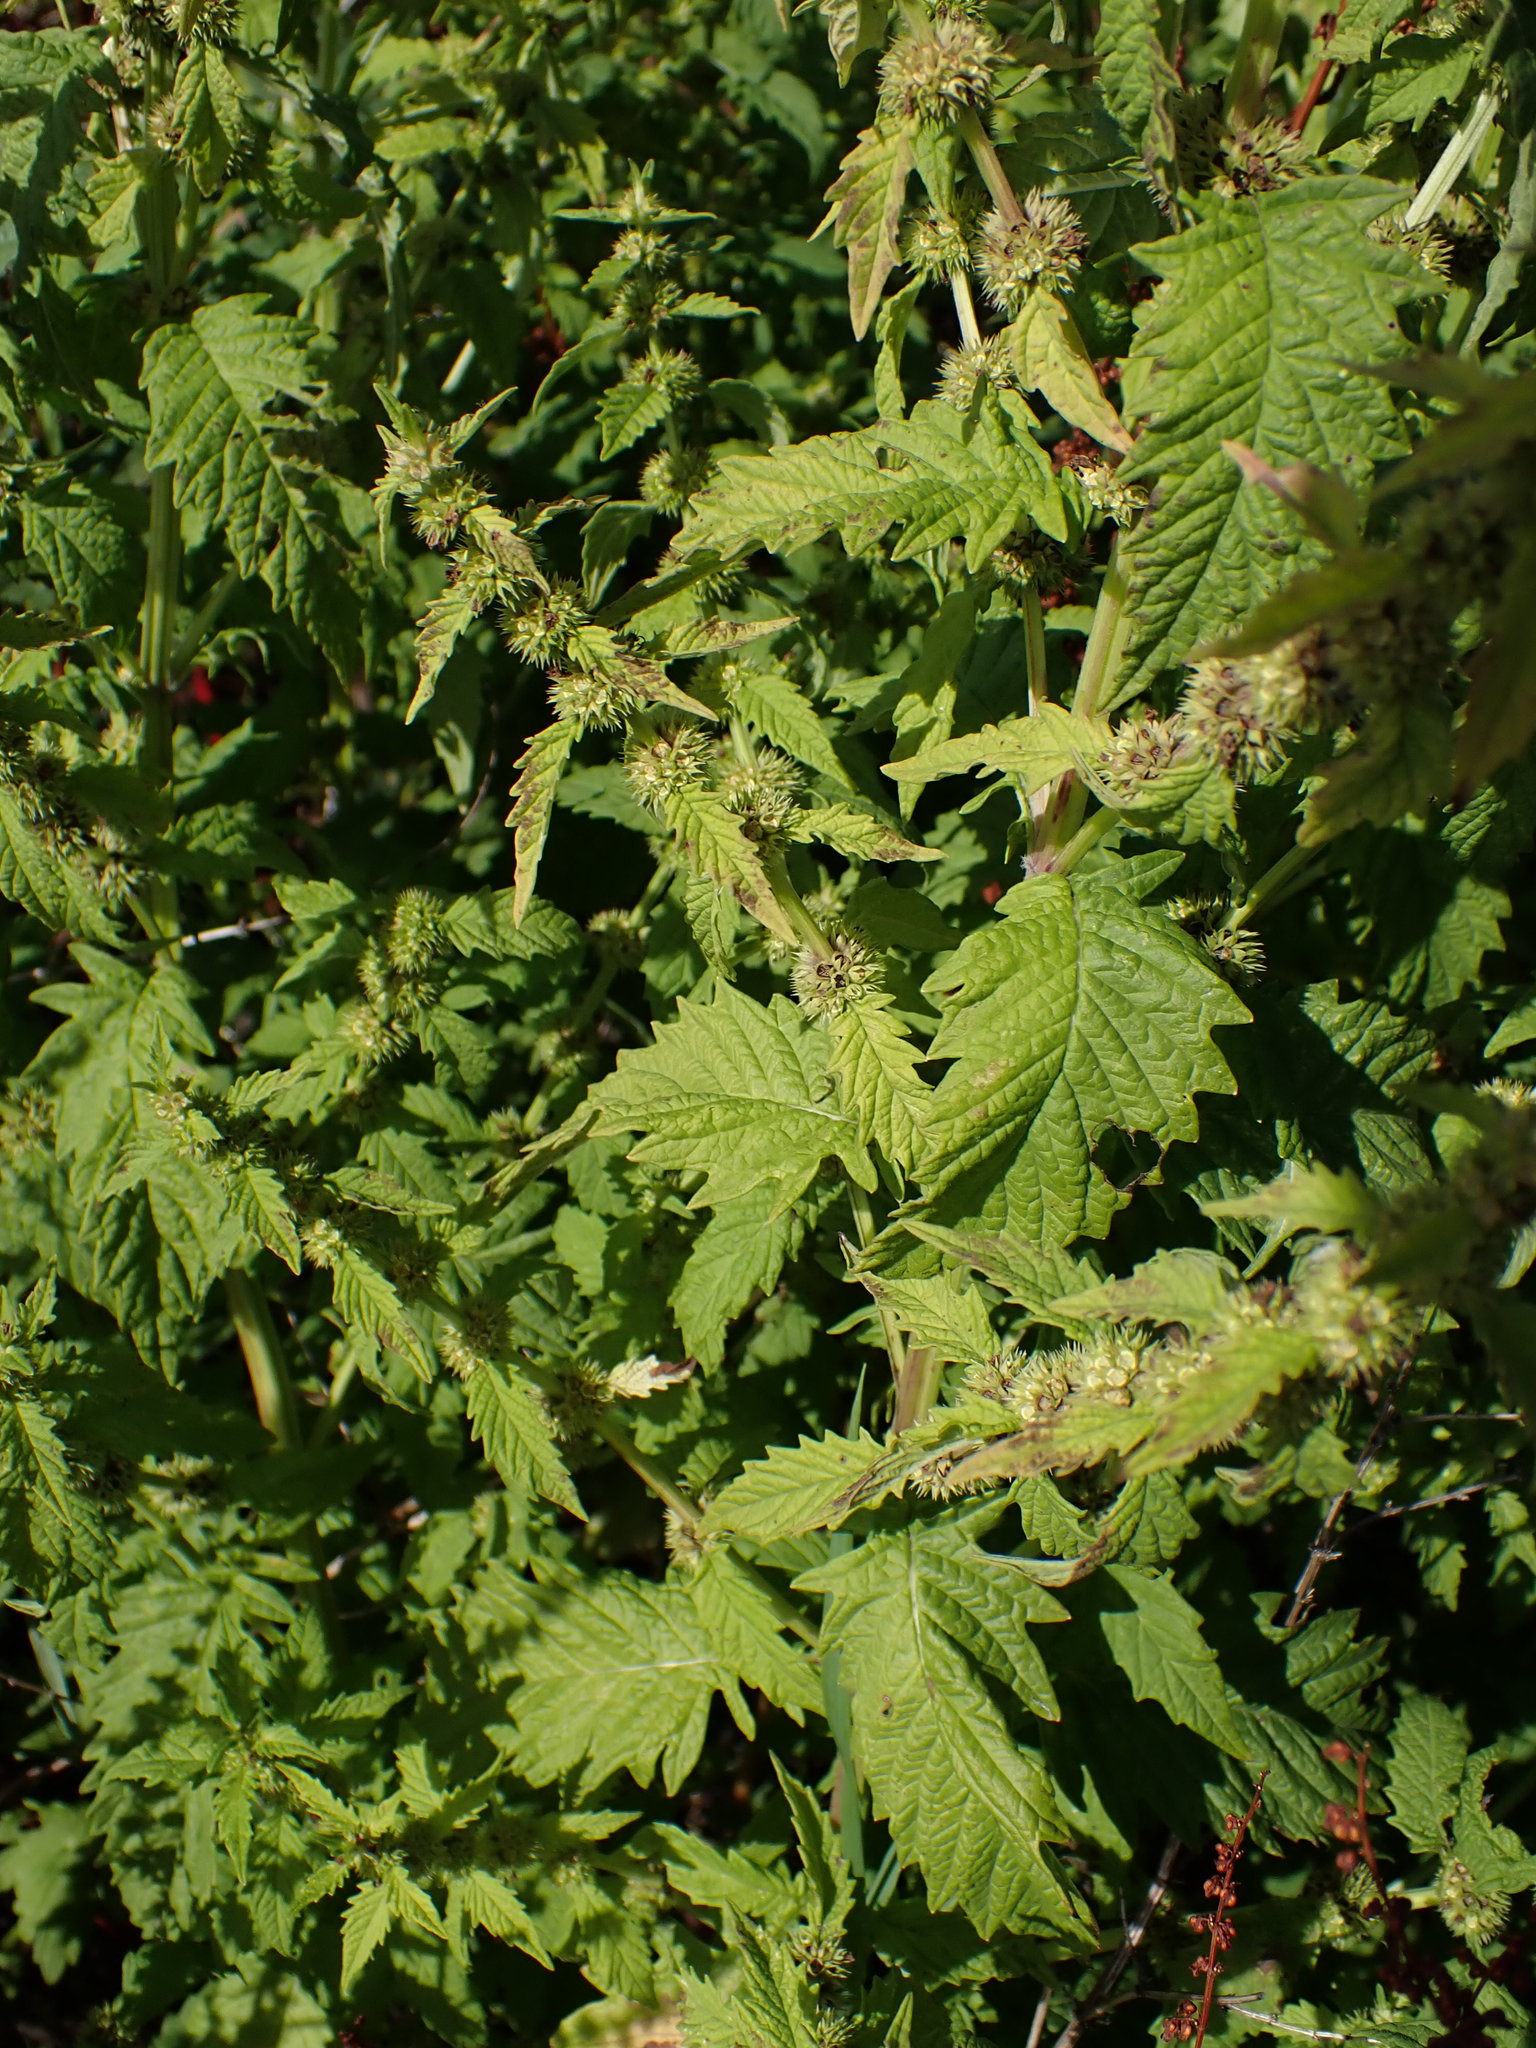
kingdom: Plantae
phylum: Tracheophyta
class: Magnoliopsida
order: Lamiales
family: Lamiaceae
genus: Lycopus
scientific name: Lycopus europaeus
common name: European bugleweed
